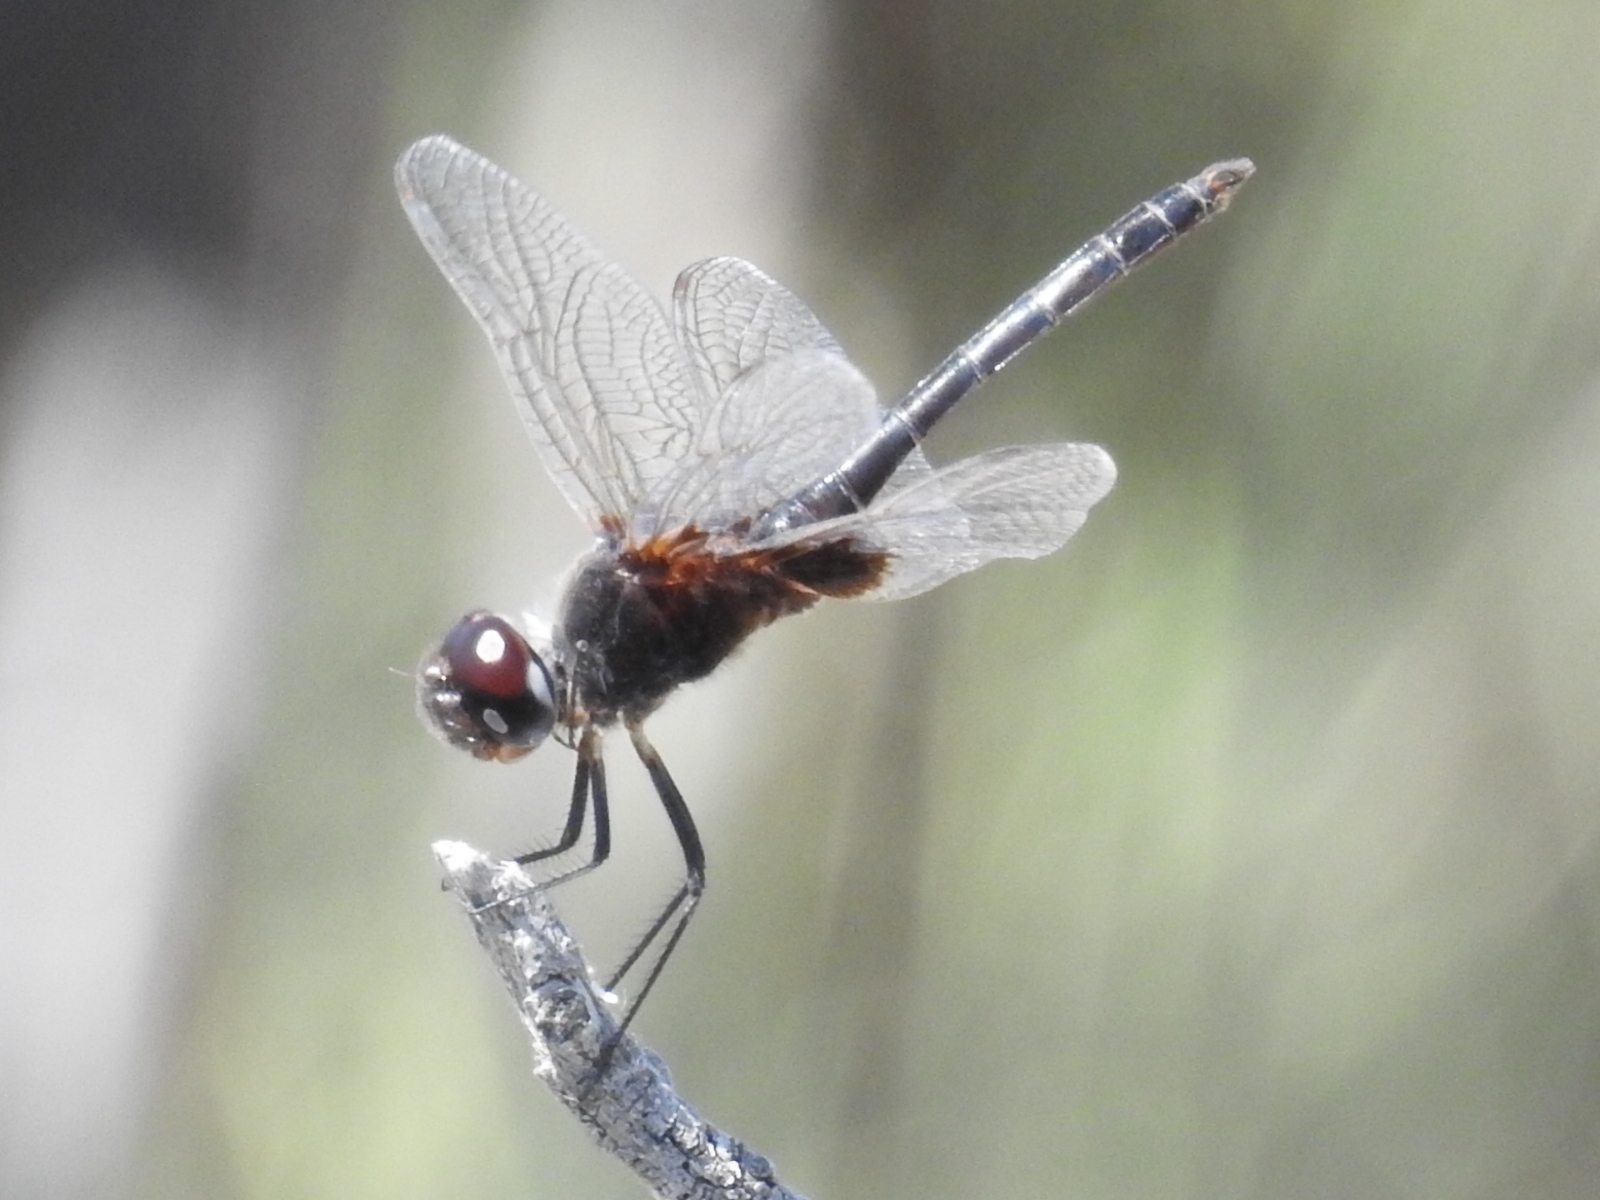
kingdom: Animalia
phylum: Arthropoda
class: Insecta
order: Odonata
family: Libellulidae
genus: Macrodiplax
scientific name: Macrodiplax balteata
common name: Marl pennant
